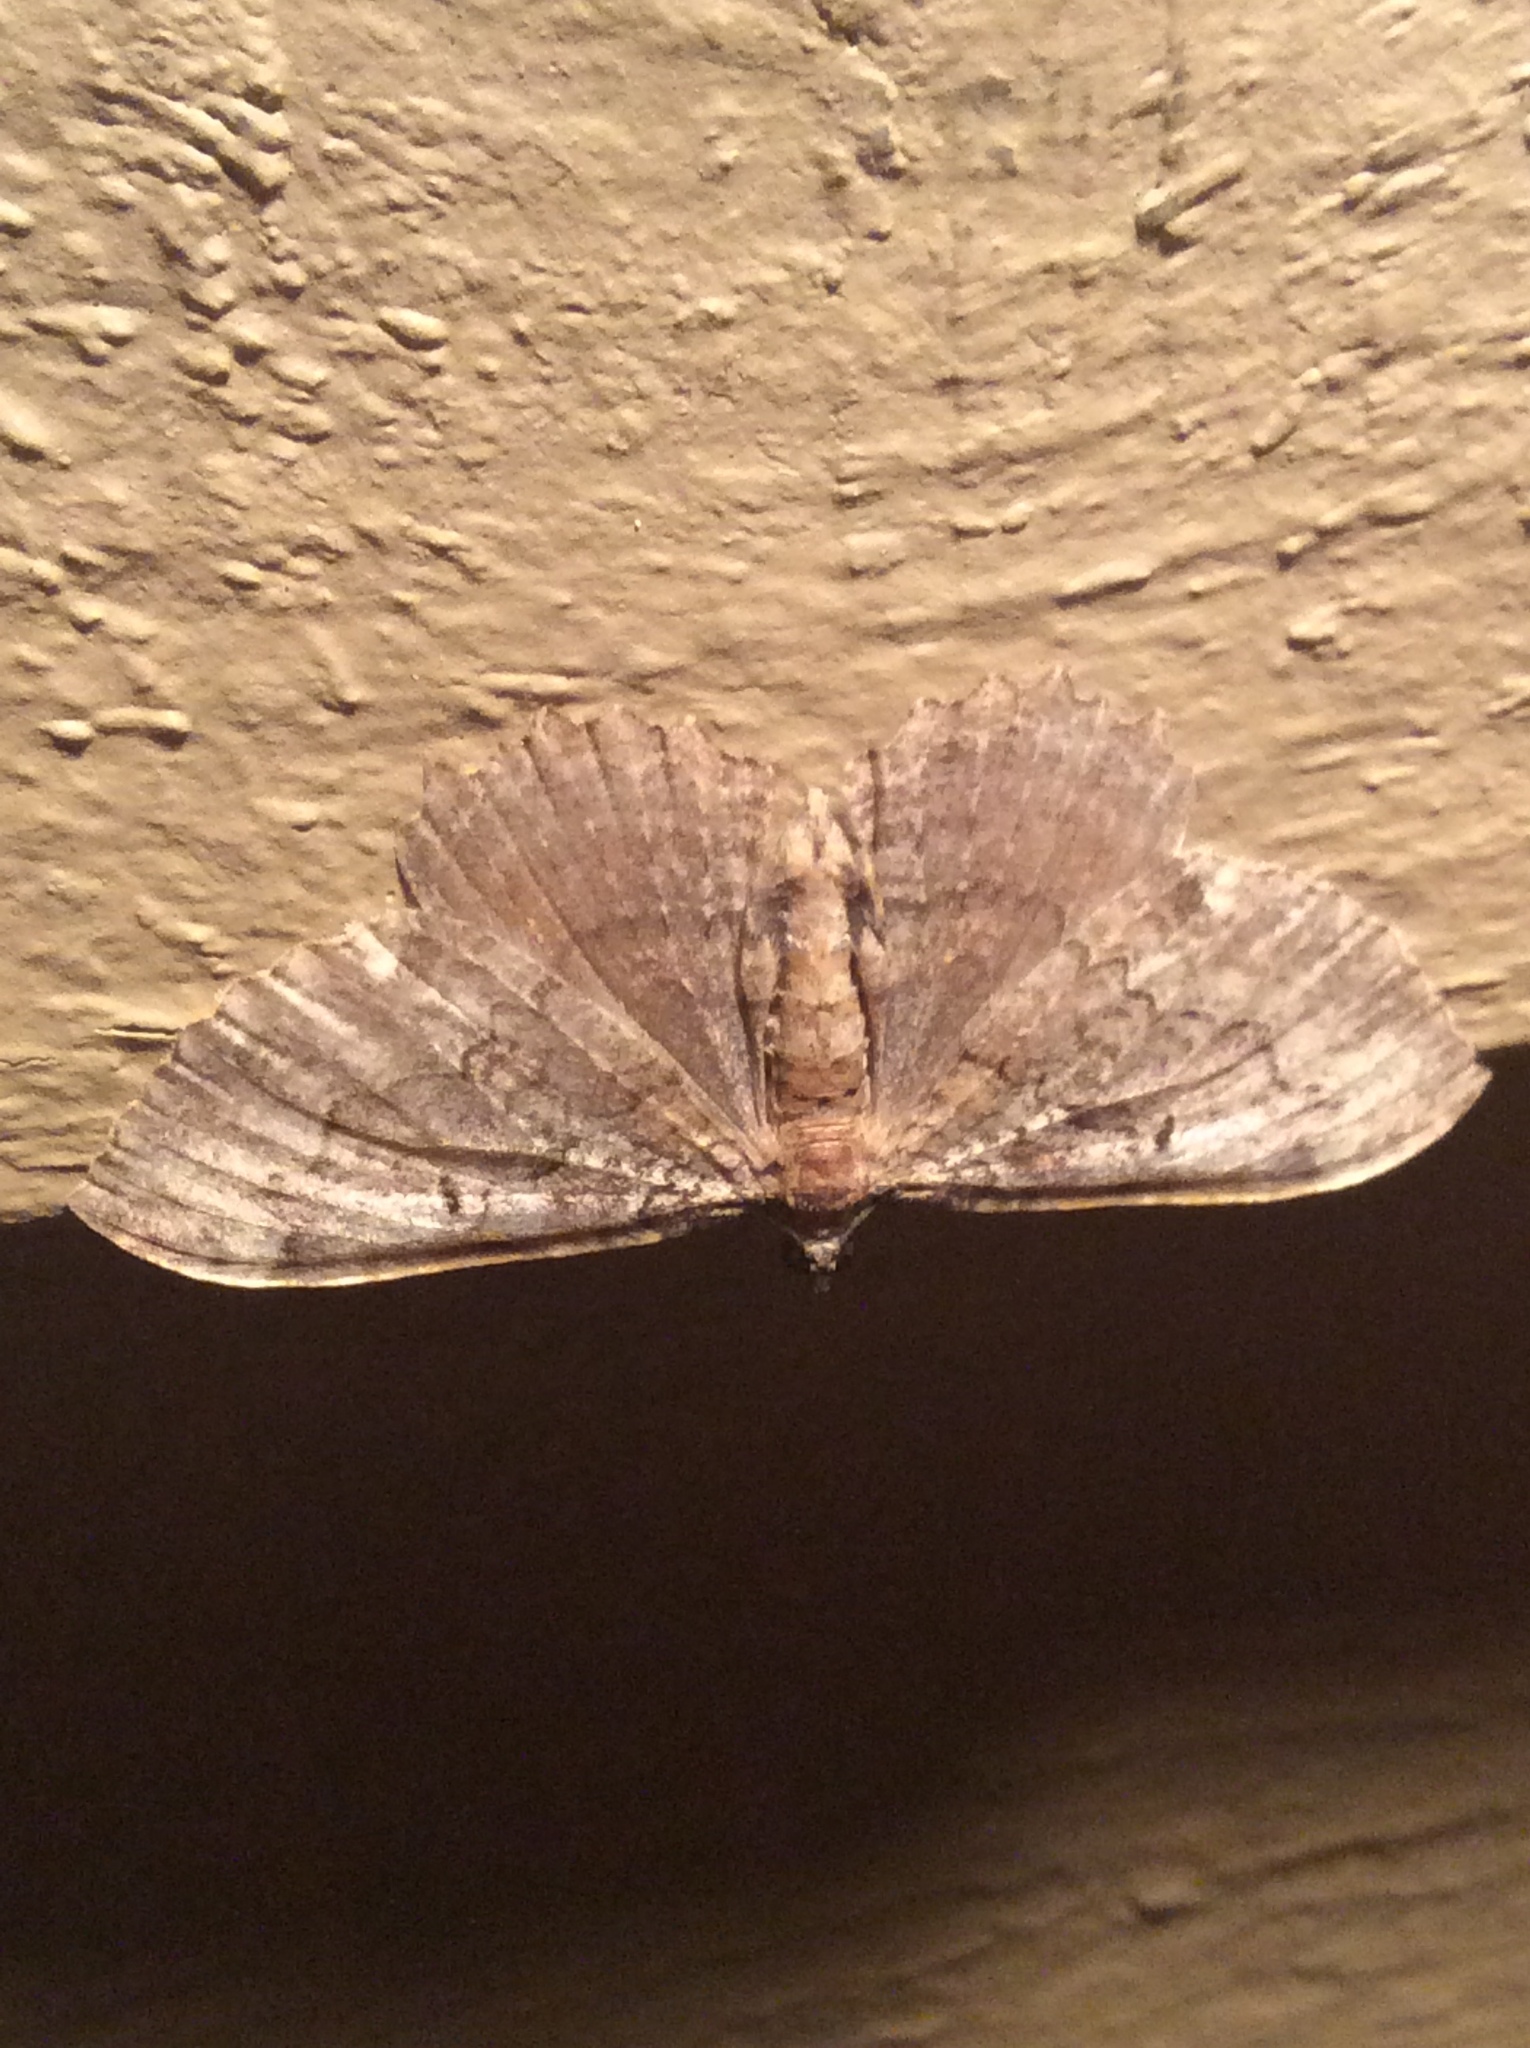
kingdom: Animalia
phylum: Arthropoda
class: Insecta
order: Lepidoptera
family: Geometridae
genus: Rheumaptera
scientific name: Rheumaptera
